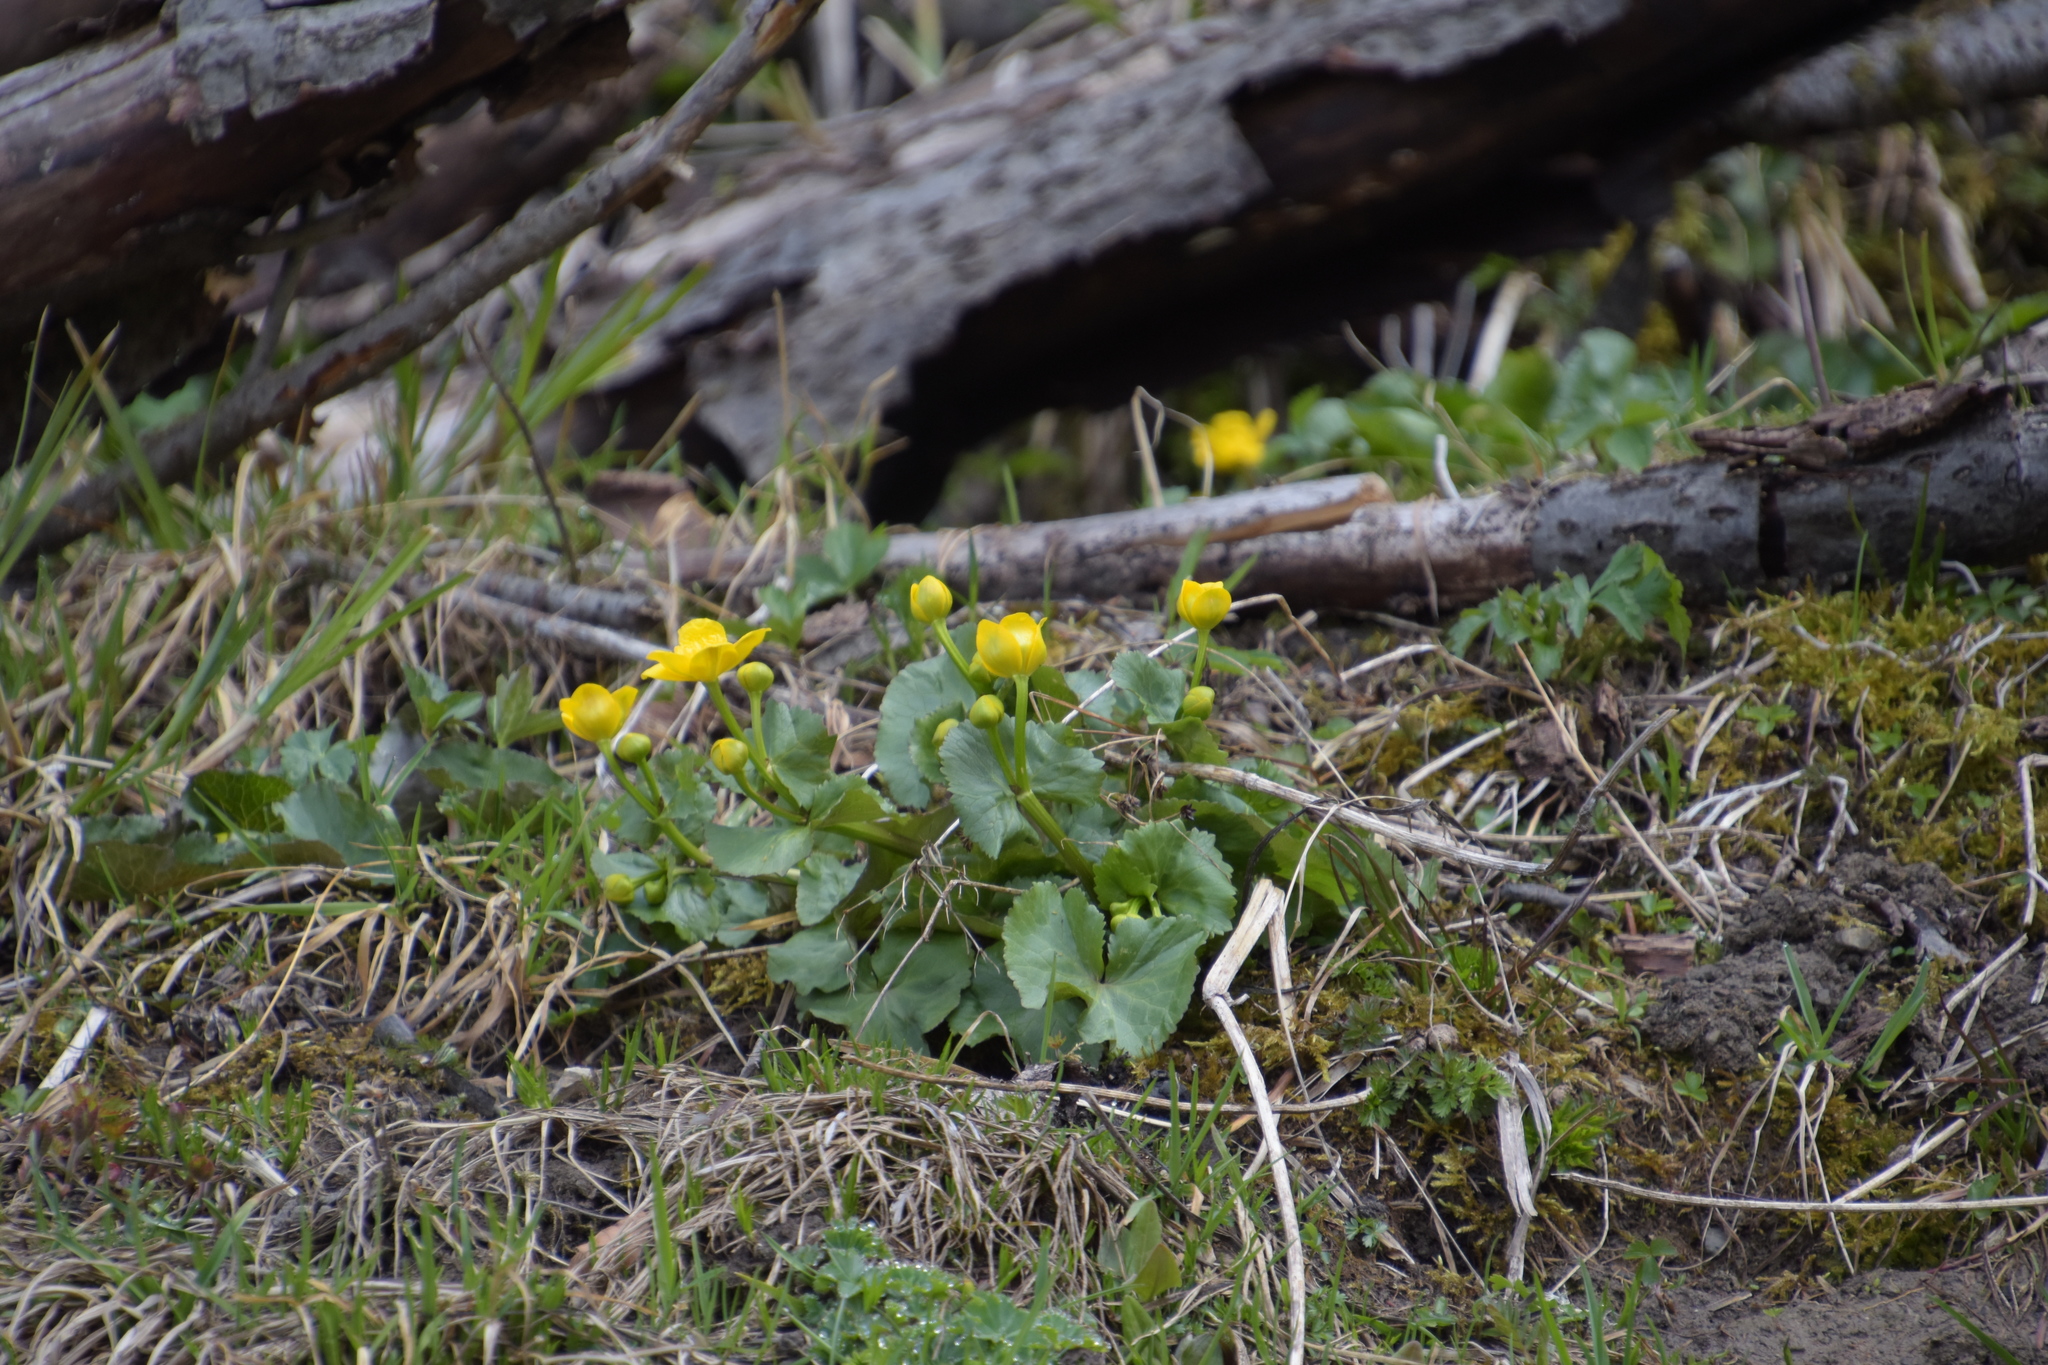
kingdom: Plantae
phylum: Tracheophyta
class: Magnoliopsida
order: Ranunculales
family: Ranunculaceae
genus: Caltha
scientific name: Caltha palustris
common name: Marsh marigold
